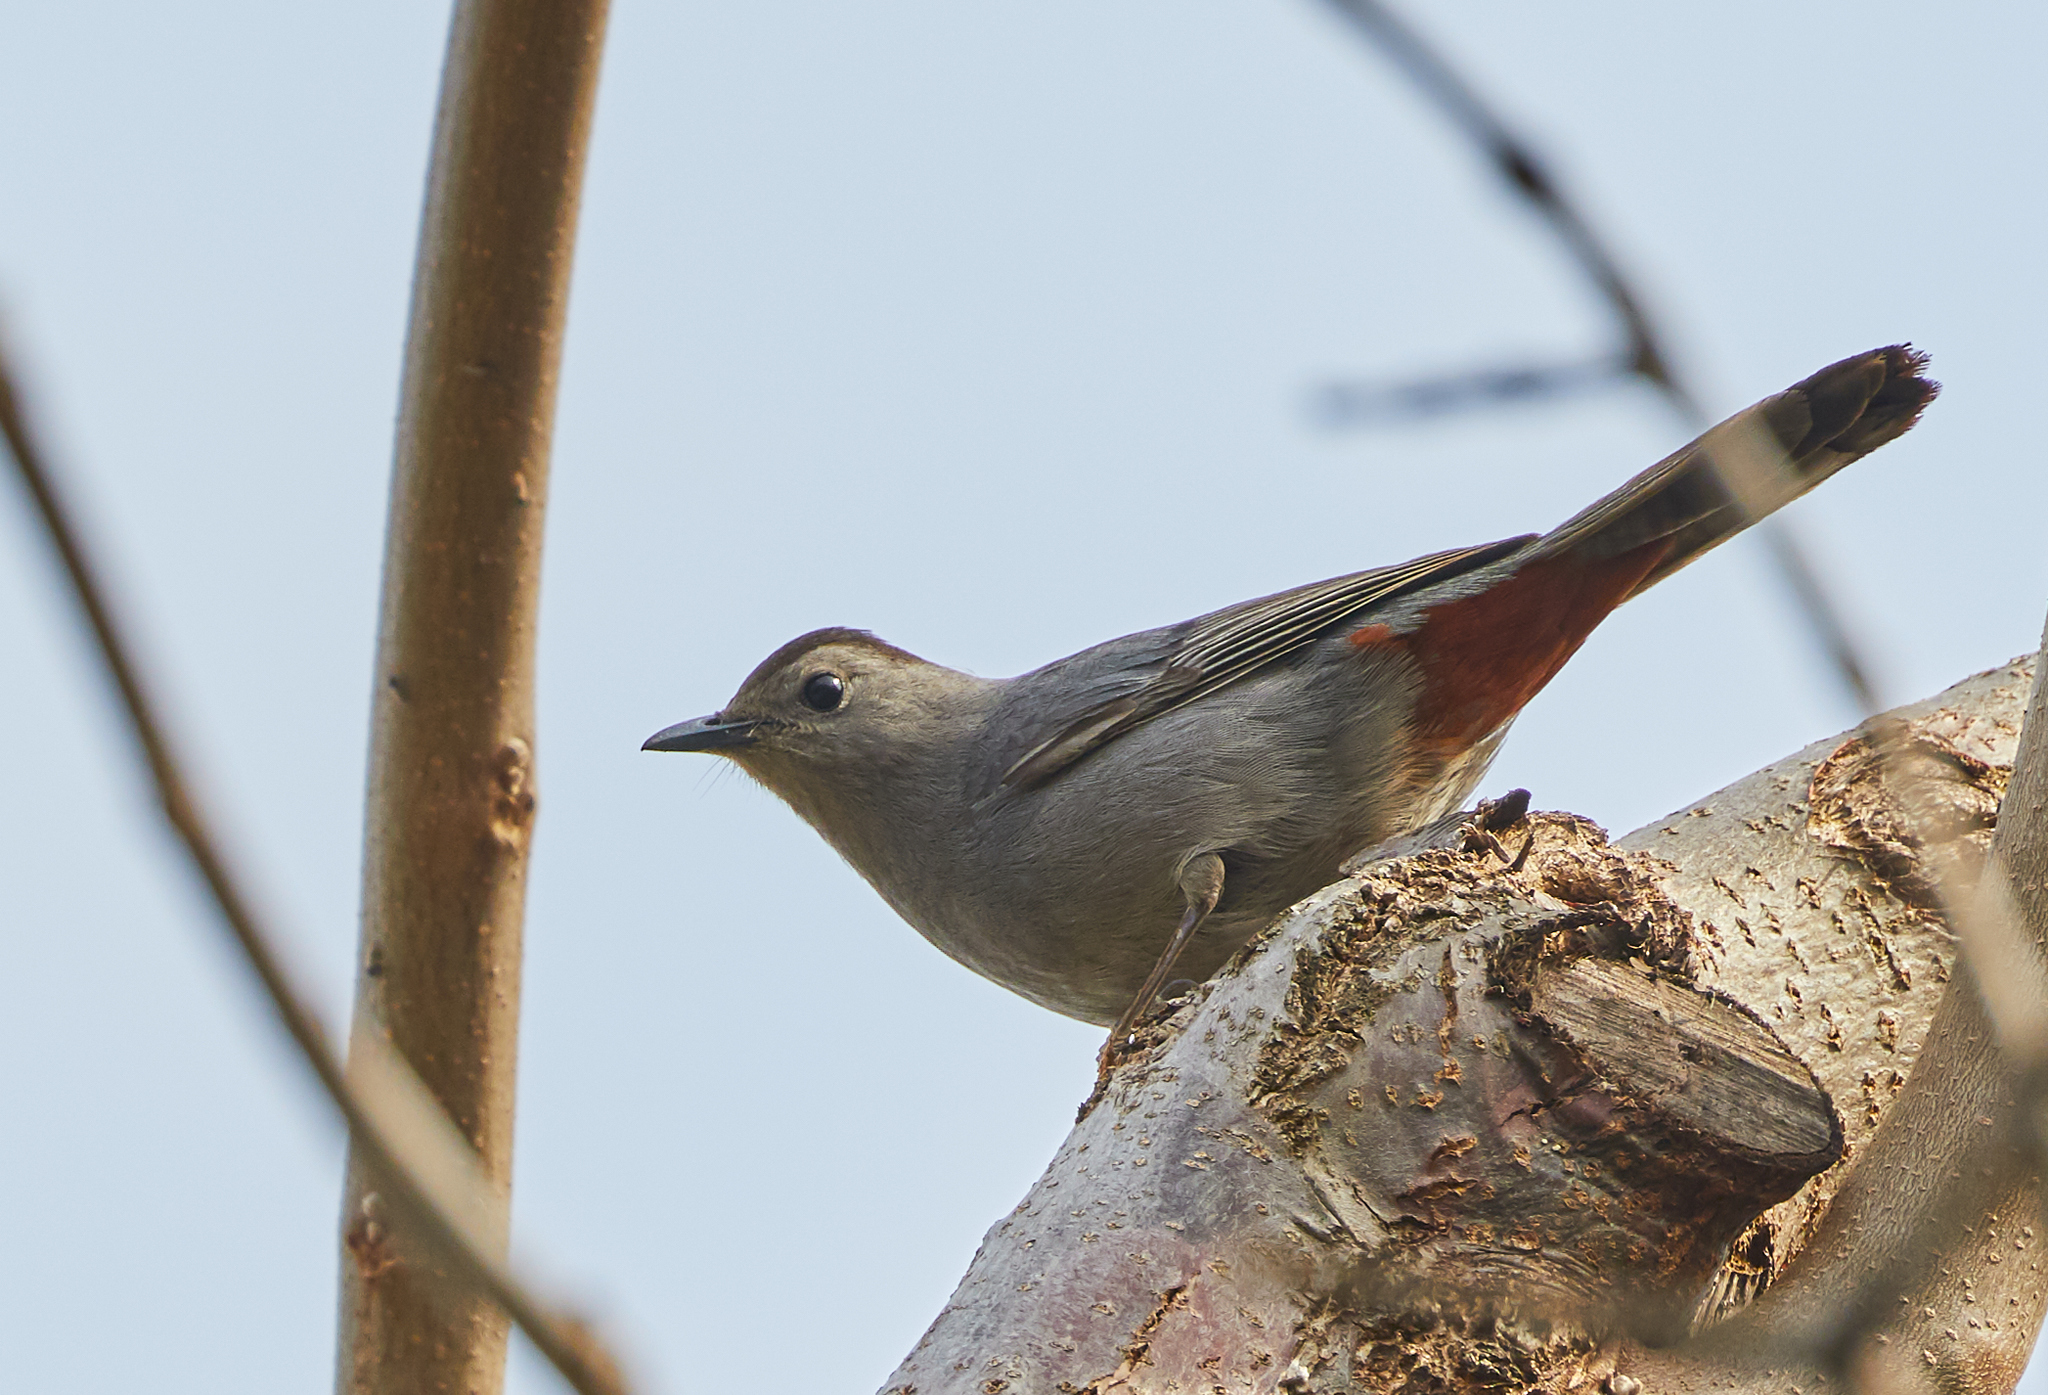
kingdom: Animalia
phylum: Chordata
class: Aves
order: Passeriformes
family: Mimidae
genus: Dumetella
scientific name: Dumetella carolinensis
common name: Gray catbird
